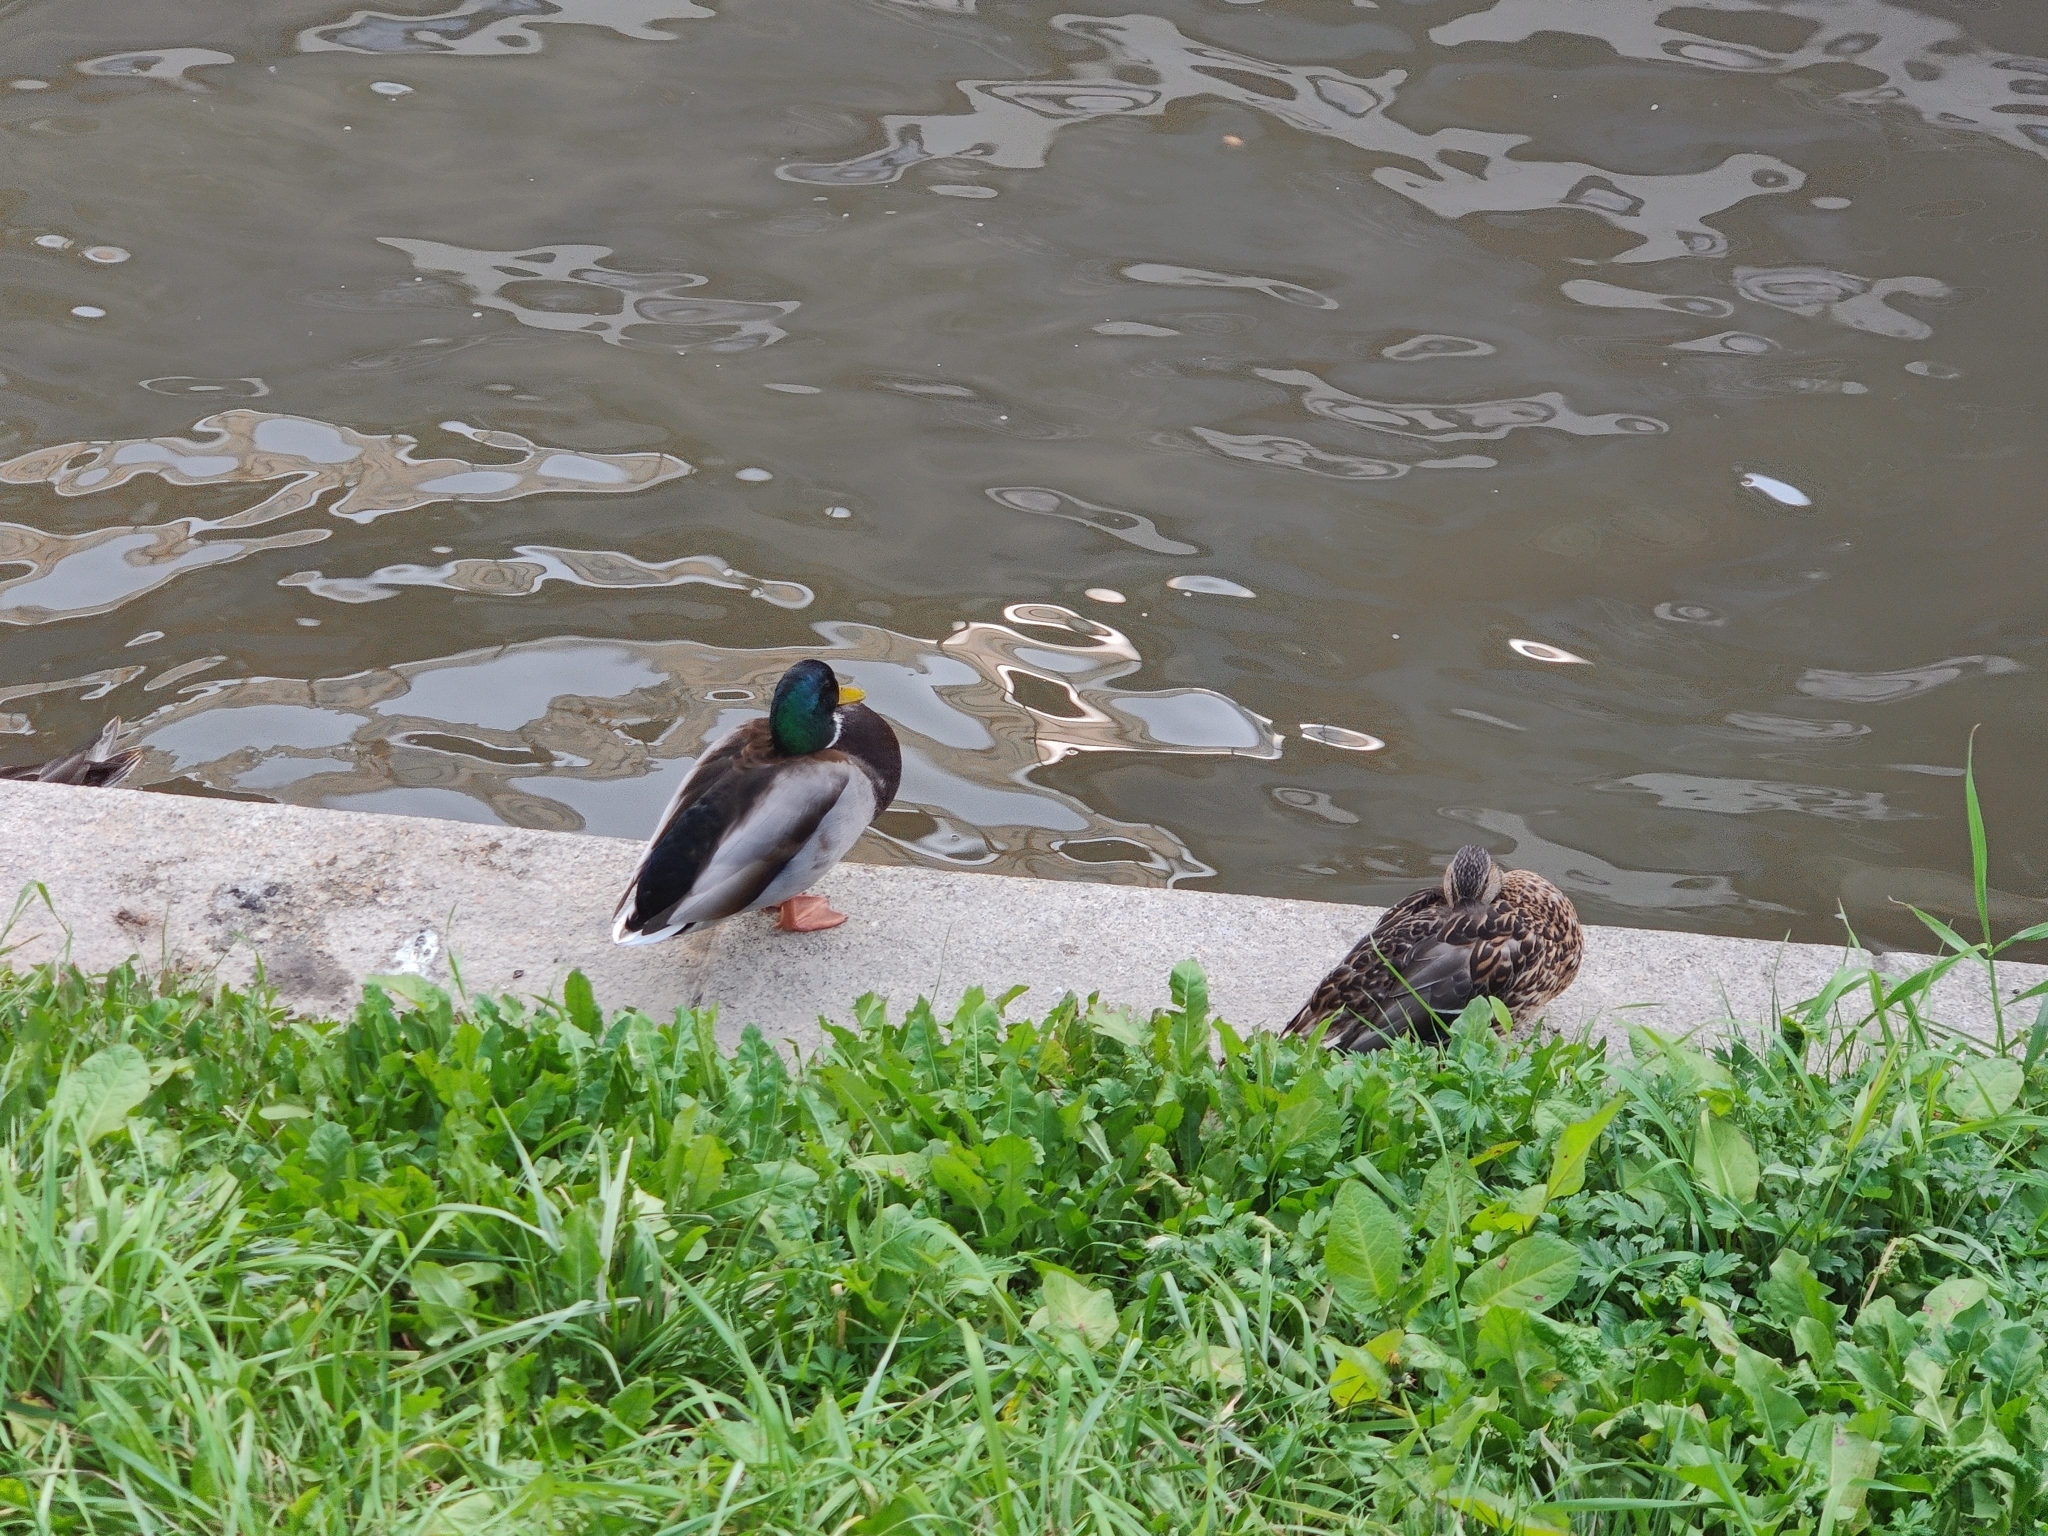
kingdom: Animalia
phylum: Chordata
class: Aves
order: Anseriformes
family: Anatidae
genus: Anas
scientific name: Anas platyrhynchos
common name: Mallard
